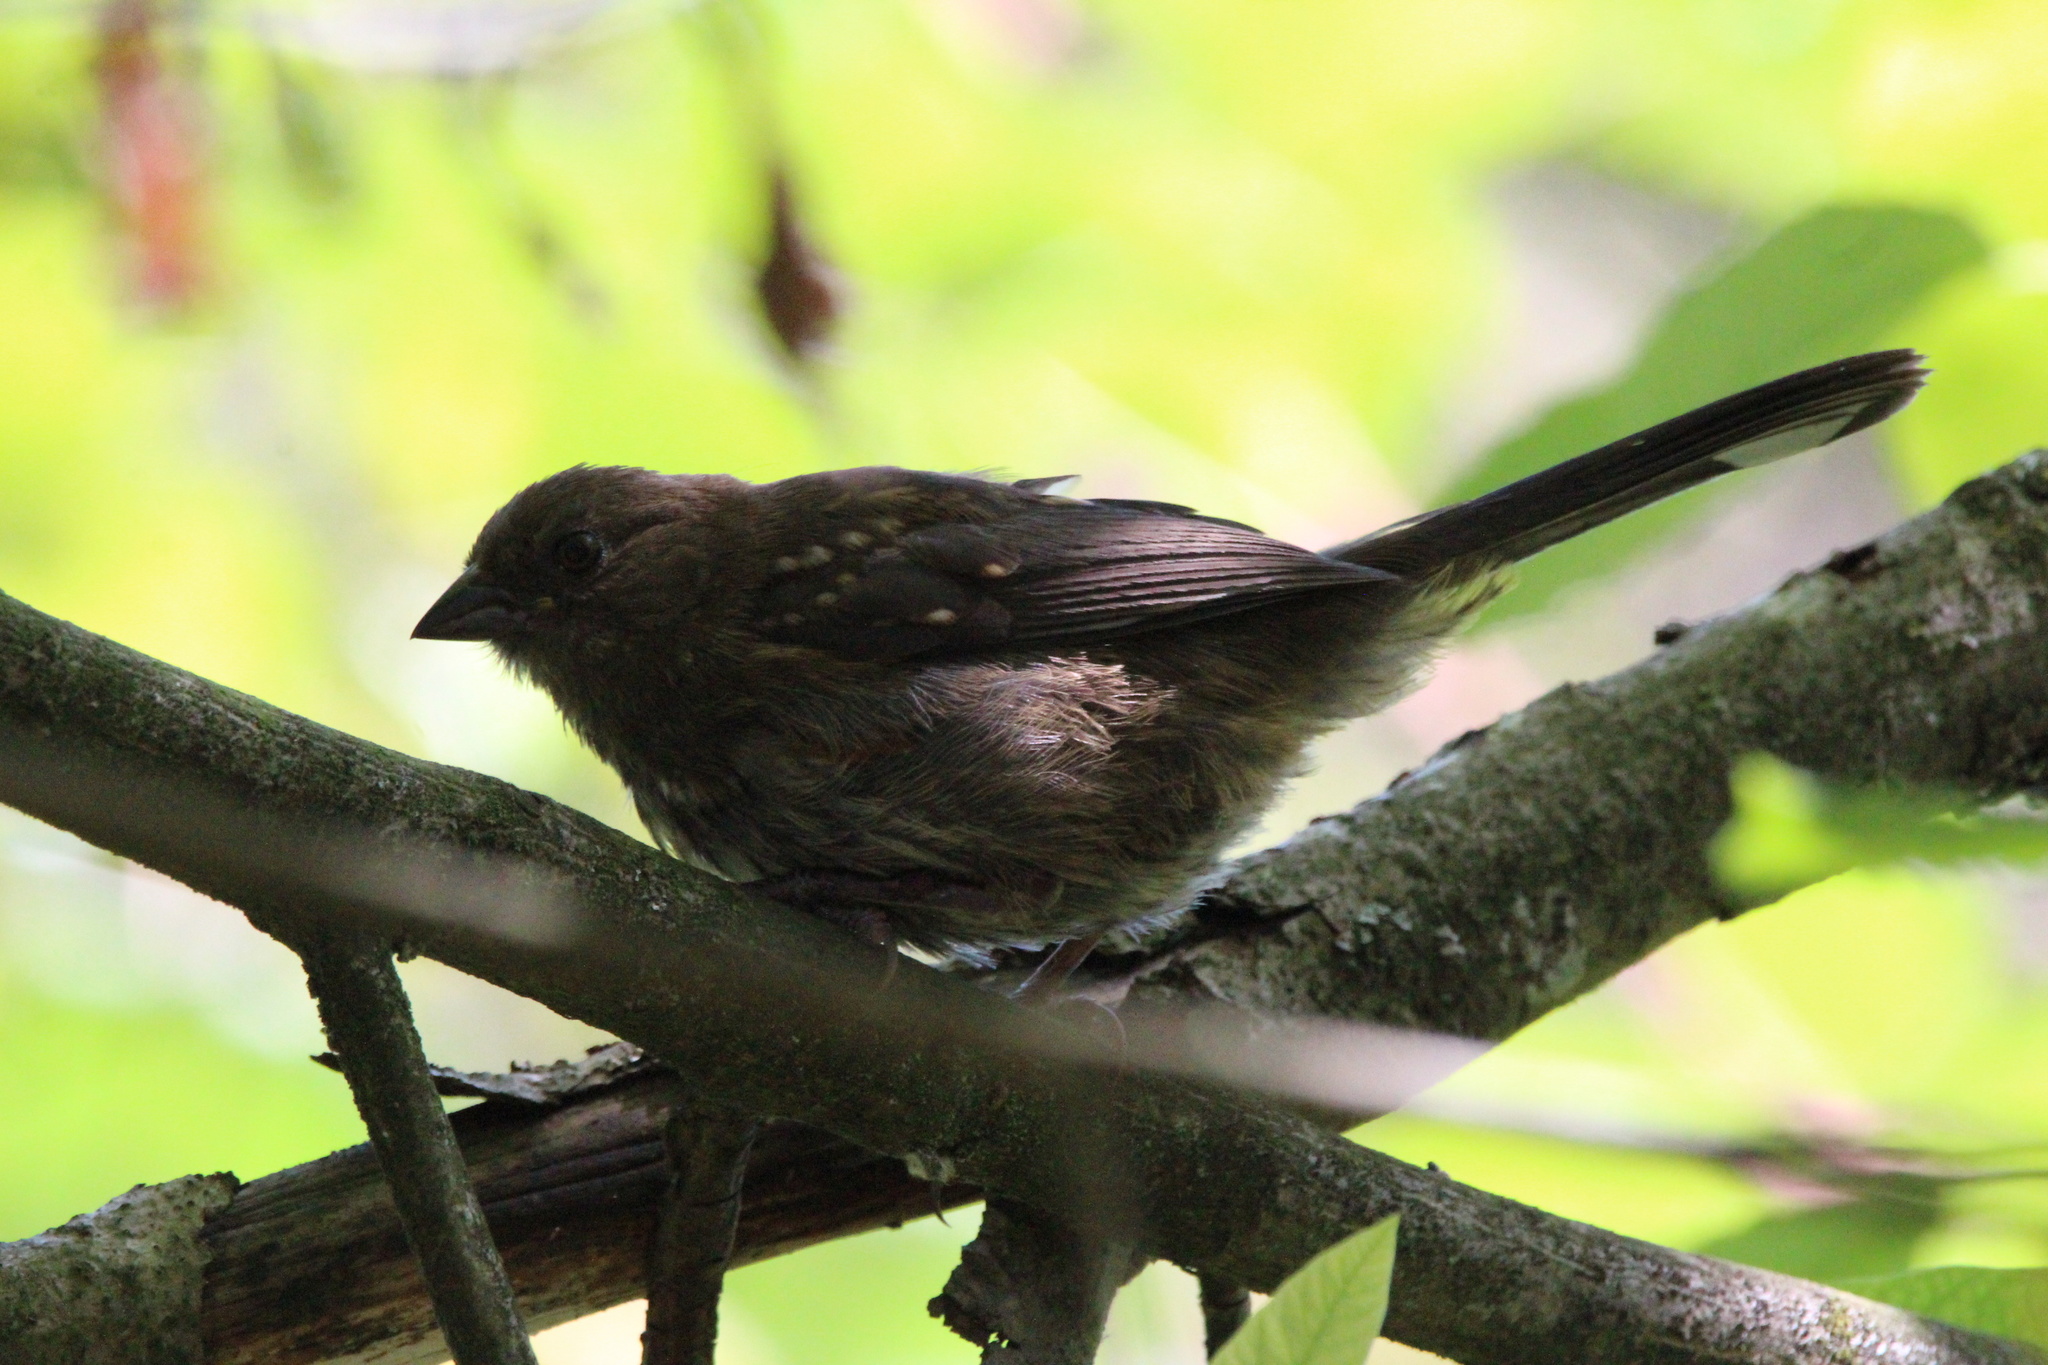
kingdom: Animalia
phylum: Chordata
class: Aves
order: Passeriformes
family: Passerellidae
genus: Pipilo
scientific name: Pipilo maculatus
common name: Spotted towhee
